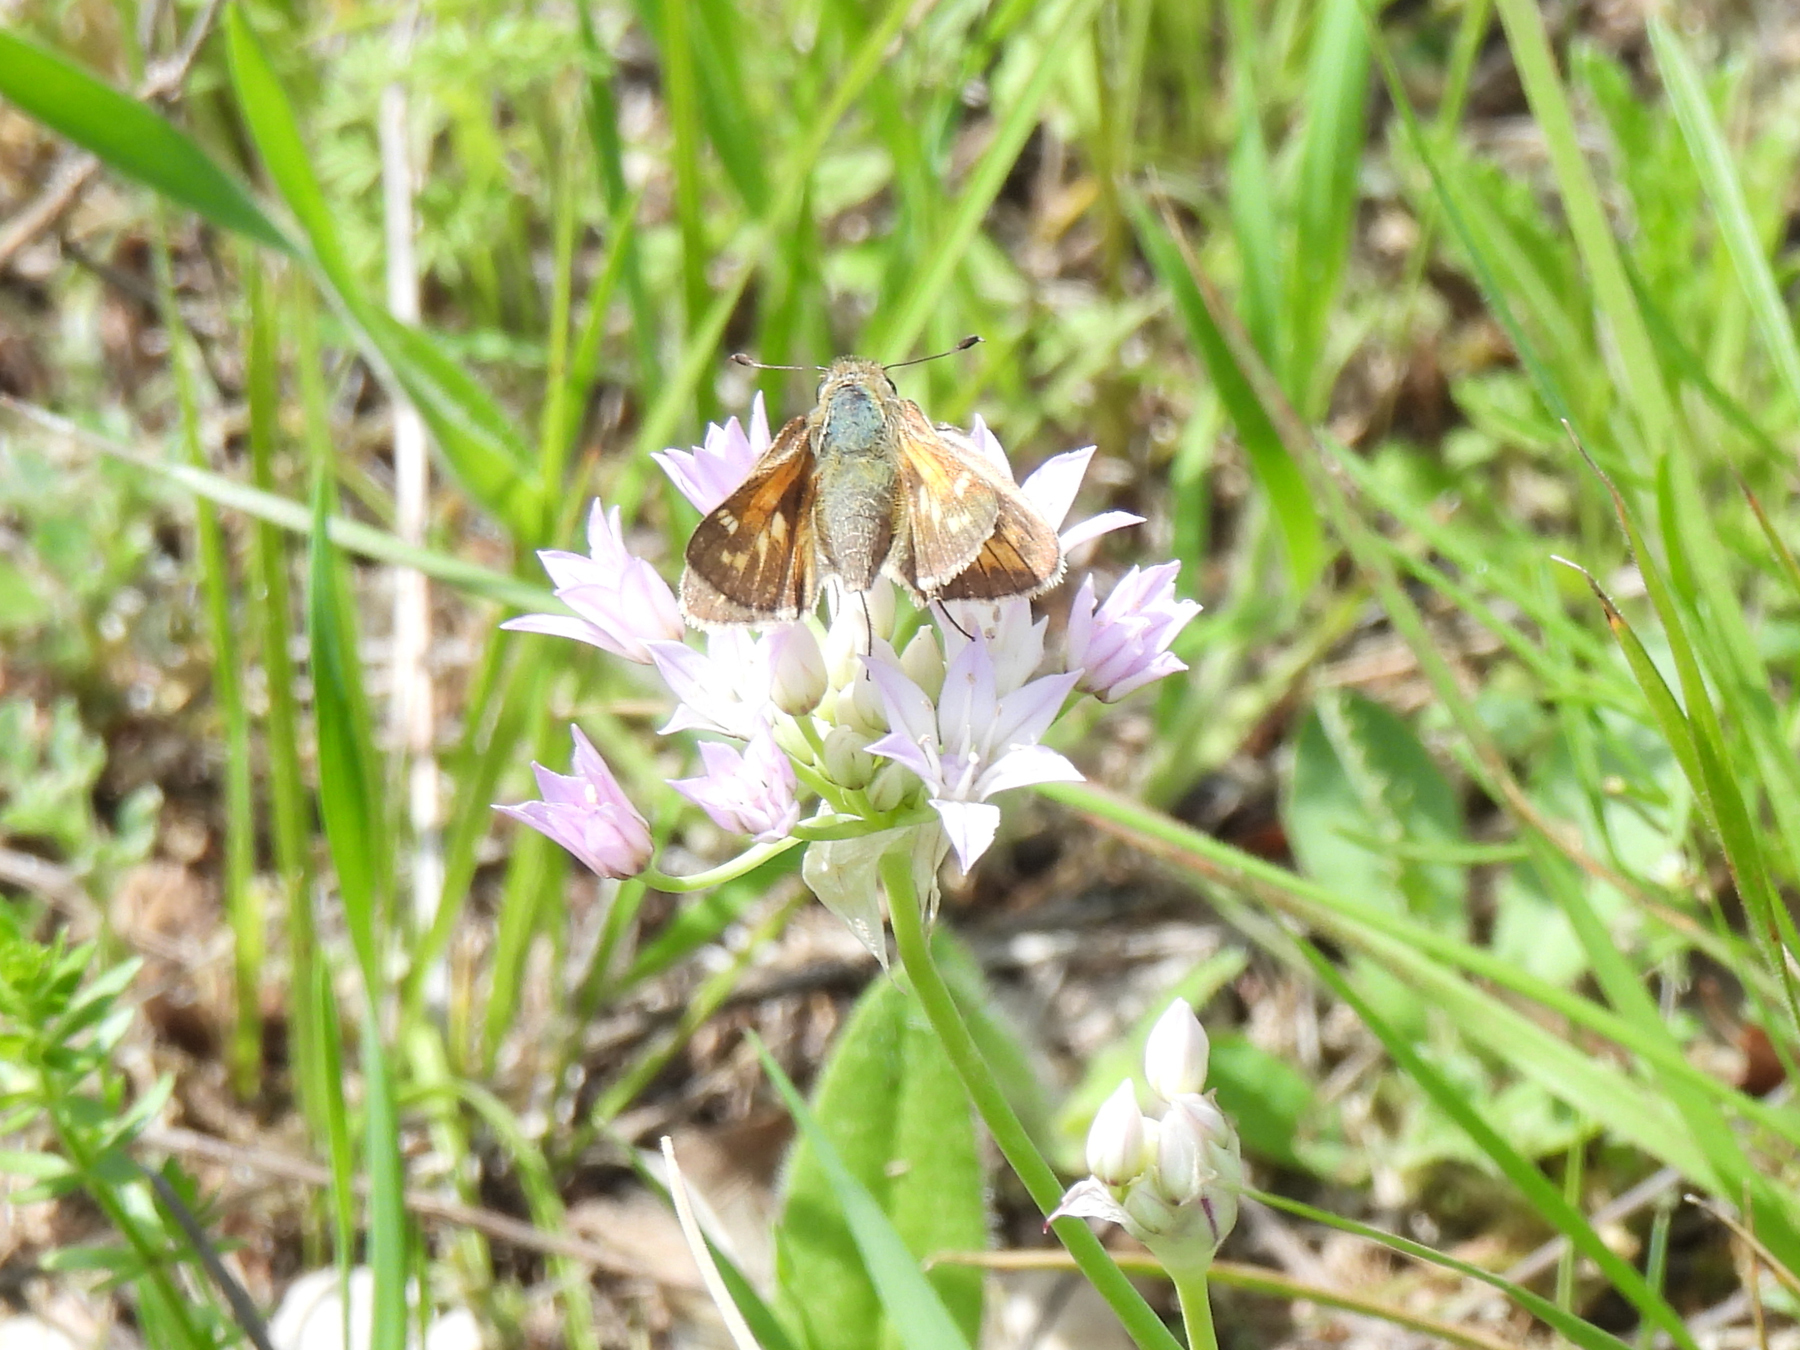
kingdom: Animalia
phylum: Arthropoda
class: Insecta
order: Lepidoptera
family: Hesperiidae
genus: Atalopedes
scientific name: Atalopedes
